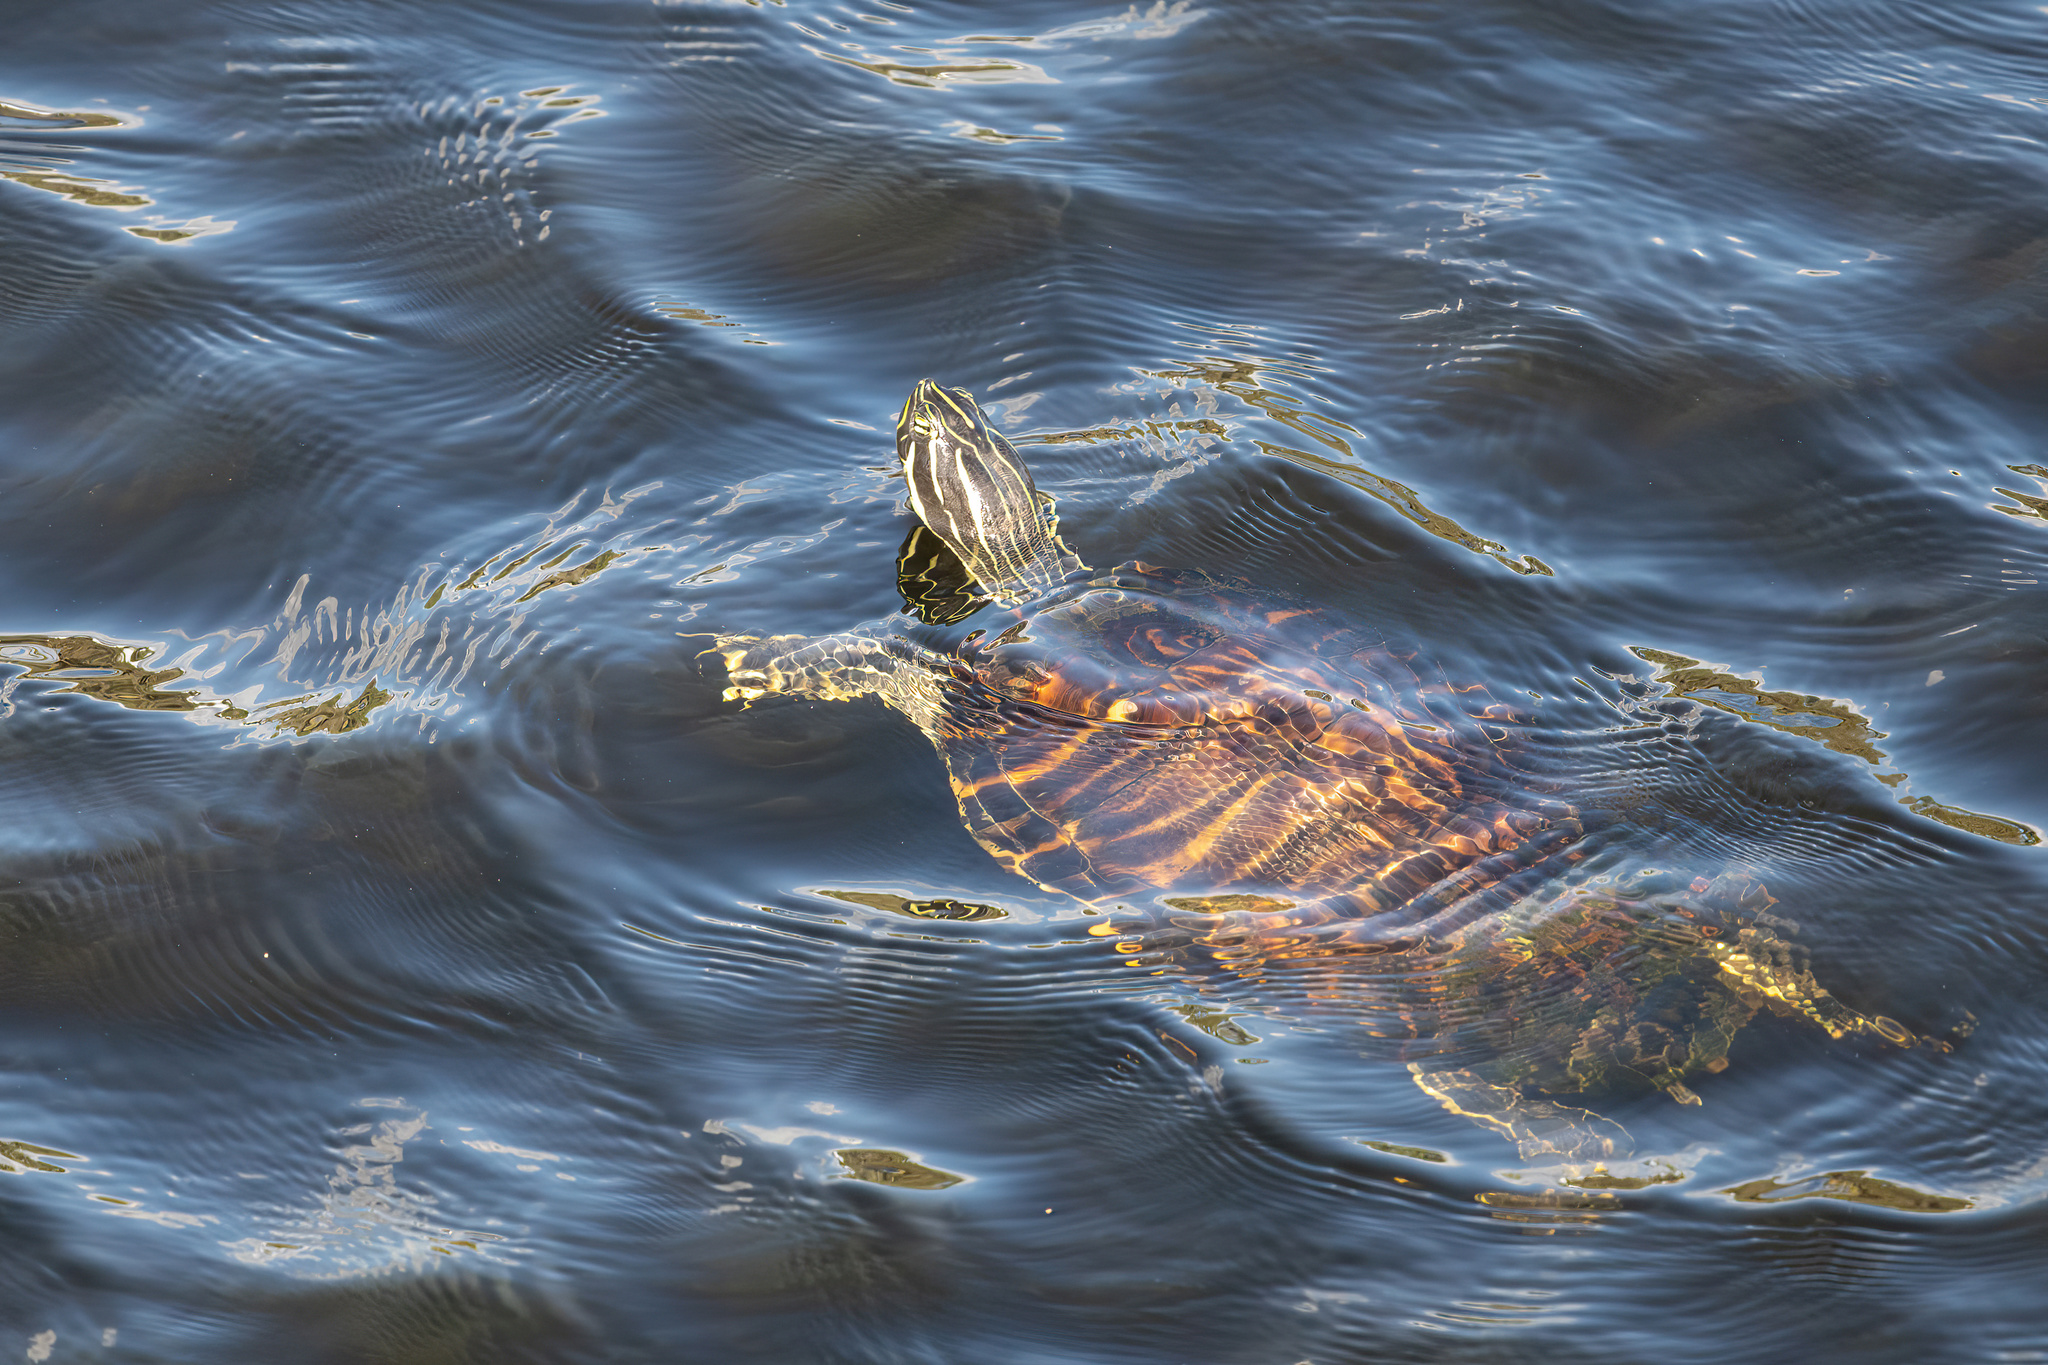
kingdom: Animalia
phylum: Chordata
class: Testudines
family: Emydidae
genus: Pseudemys
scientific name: Pseudemys peninsularis
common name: Peninsula cooter
